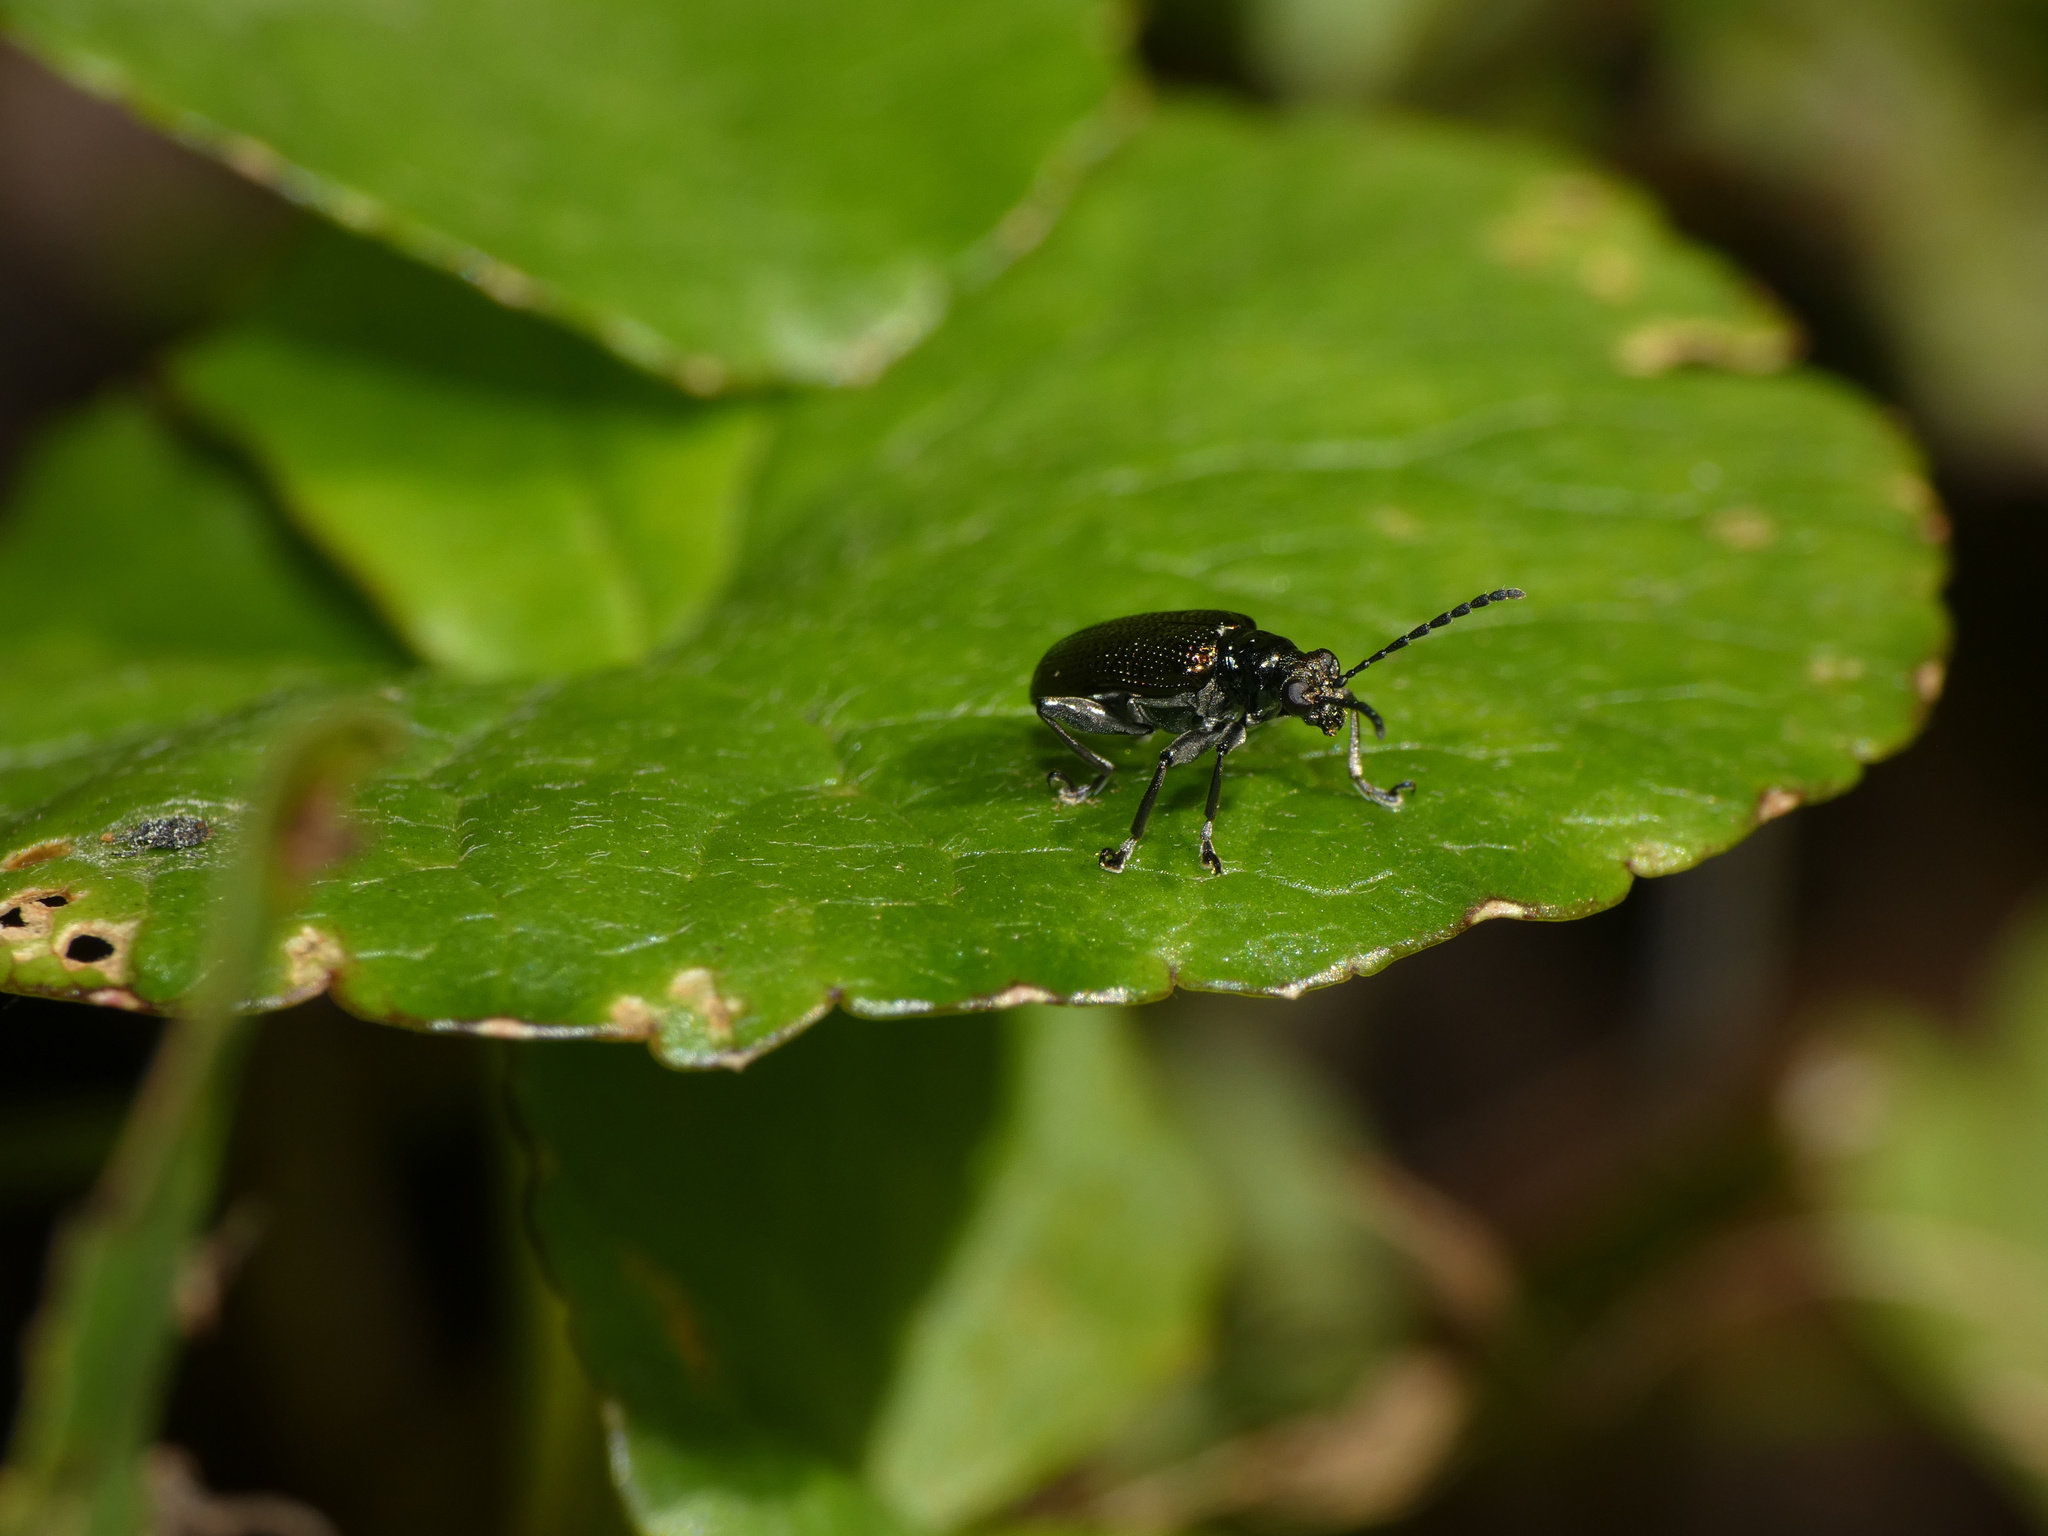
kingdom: Animalia
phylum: Arthropoda
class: Insecta
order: Coleoptera
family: Chrysomelidae
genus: Lema
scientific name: Lema
